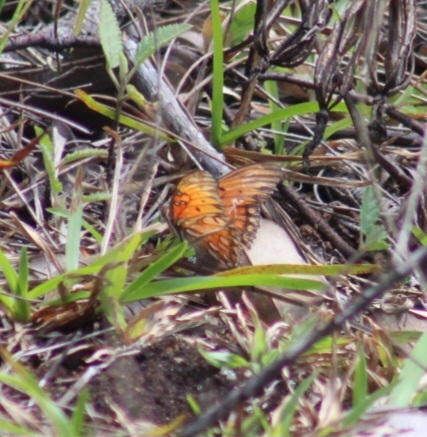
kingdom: Animalia
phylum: Arthropoda
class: Insecta
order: Lepidoptera
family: Nymphalidae
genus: Dione
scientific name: Dione vanillae
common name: Gulf fritillary
